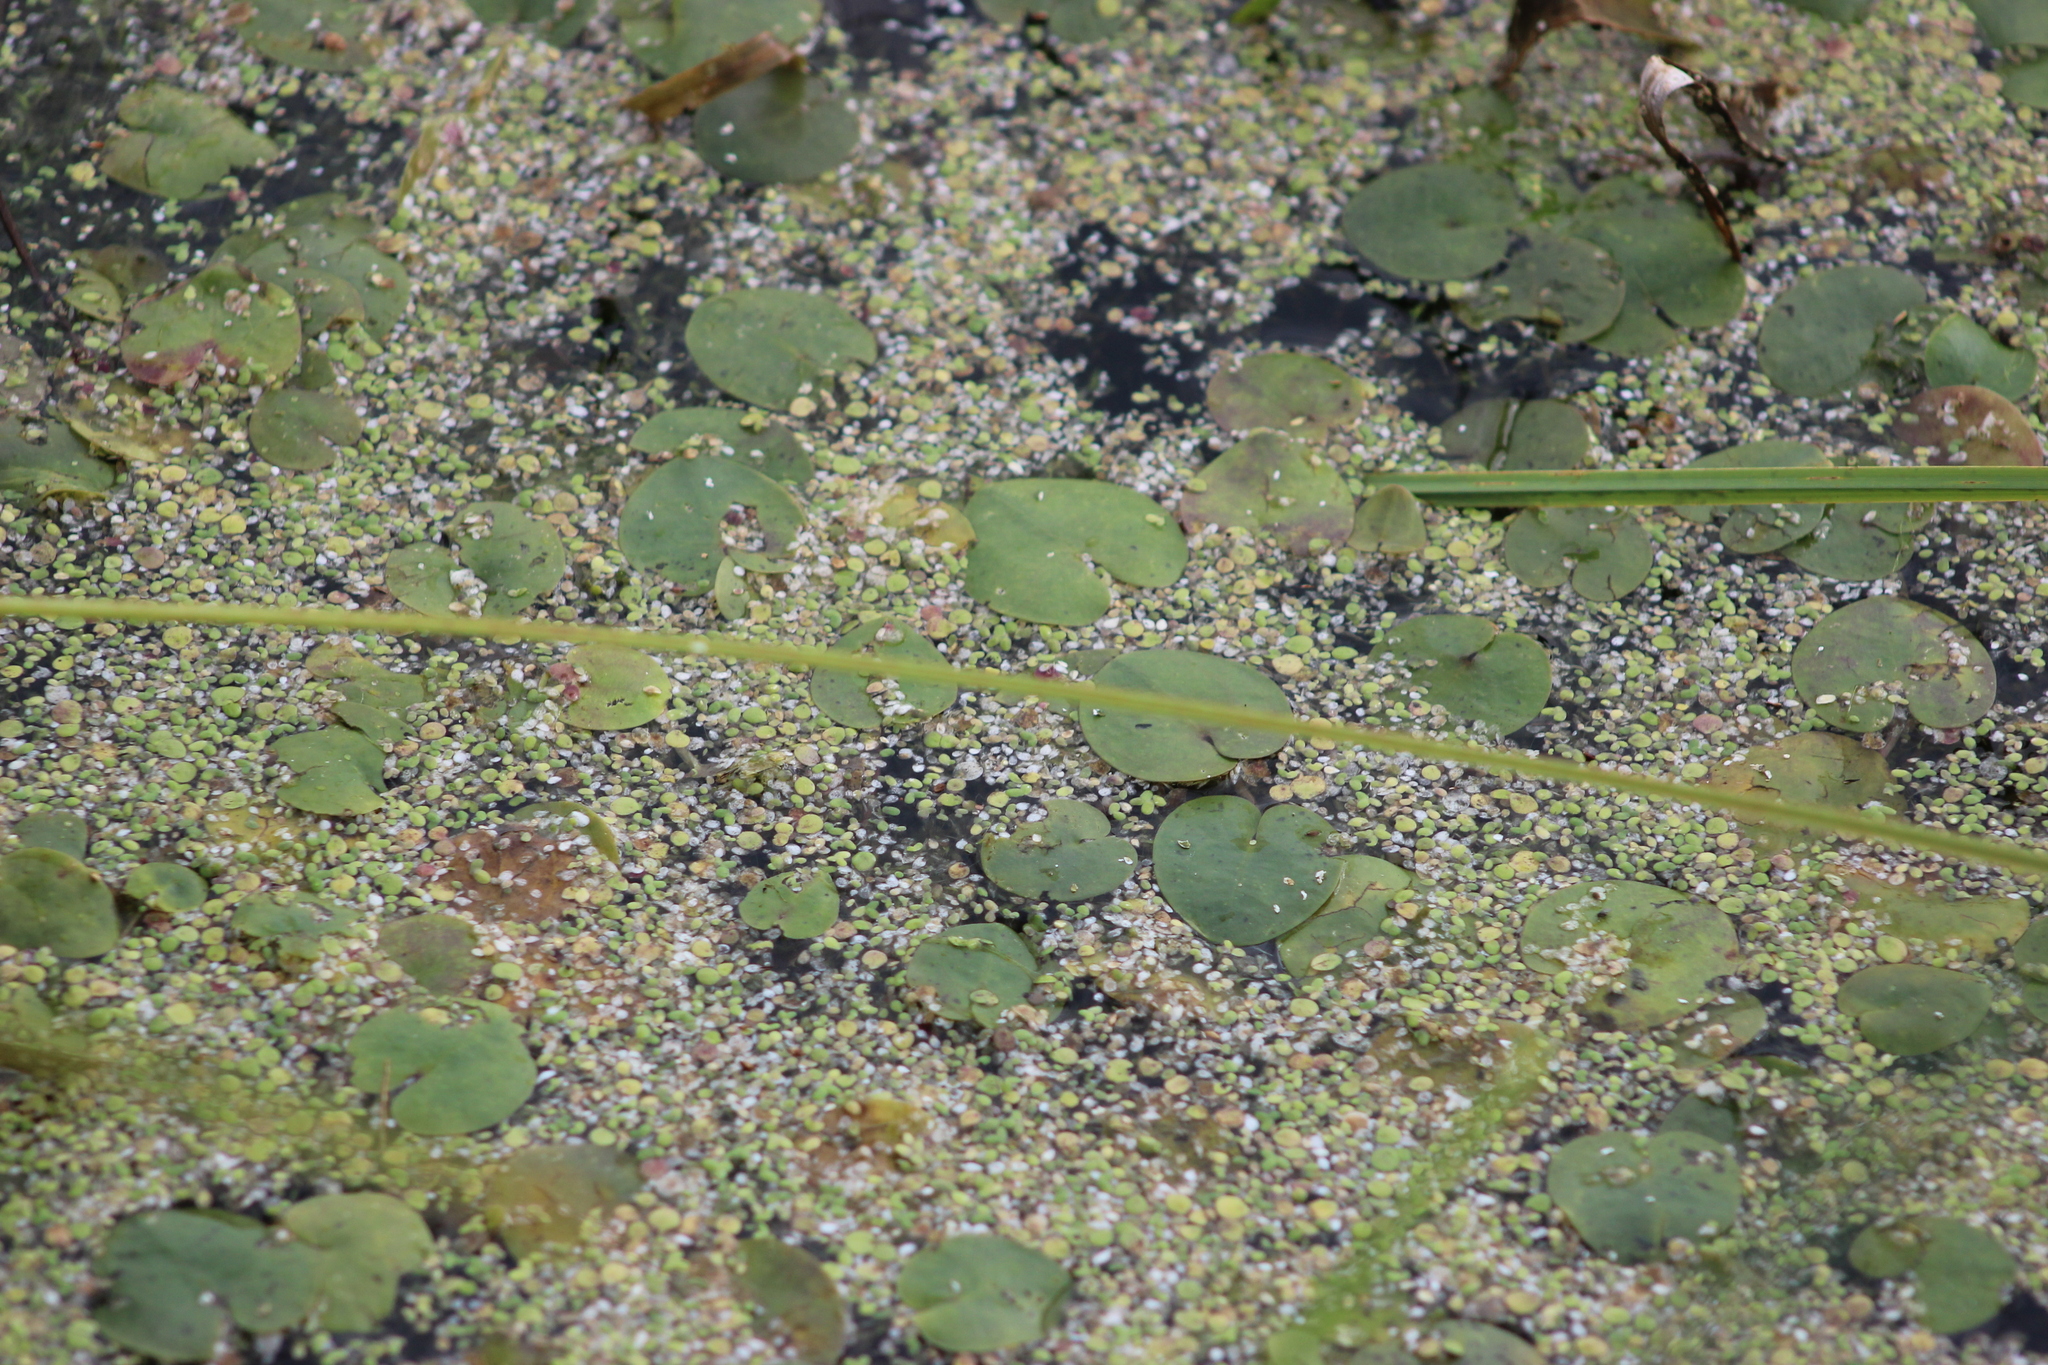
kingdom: Plantae
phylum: Tracheophyta
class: Liliopsida
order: Alismatales
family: Araceae
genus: Spirodela
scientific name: Spirodela polyrhiza
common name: Great duckweed
